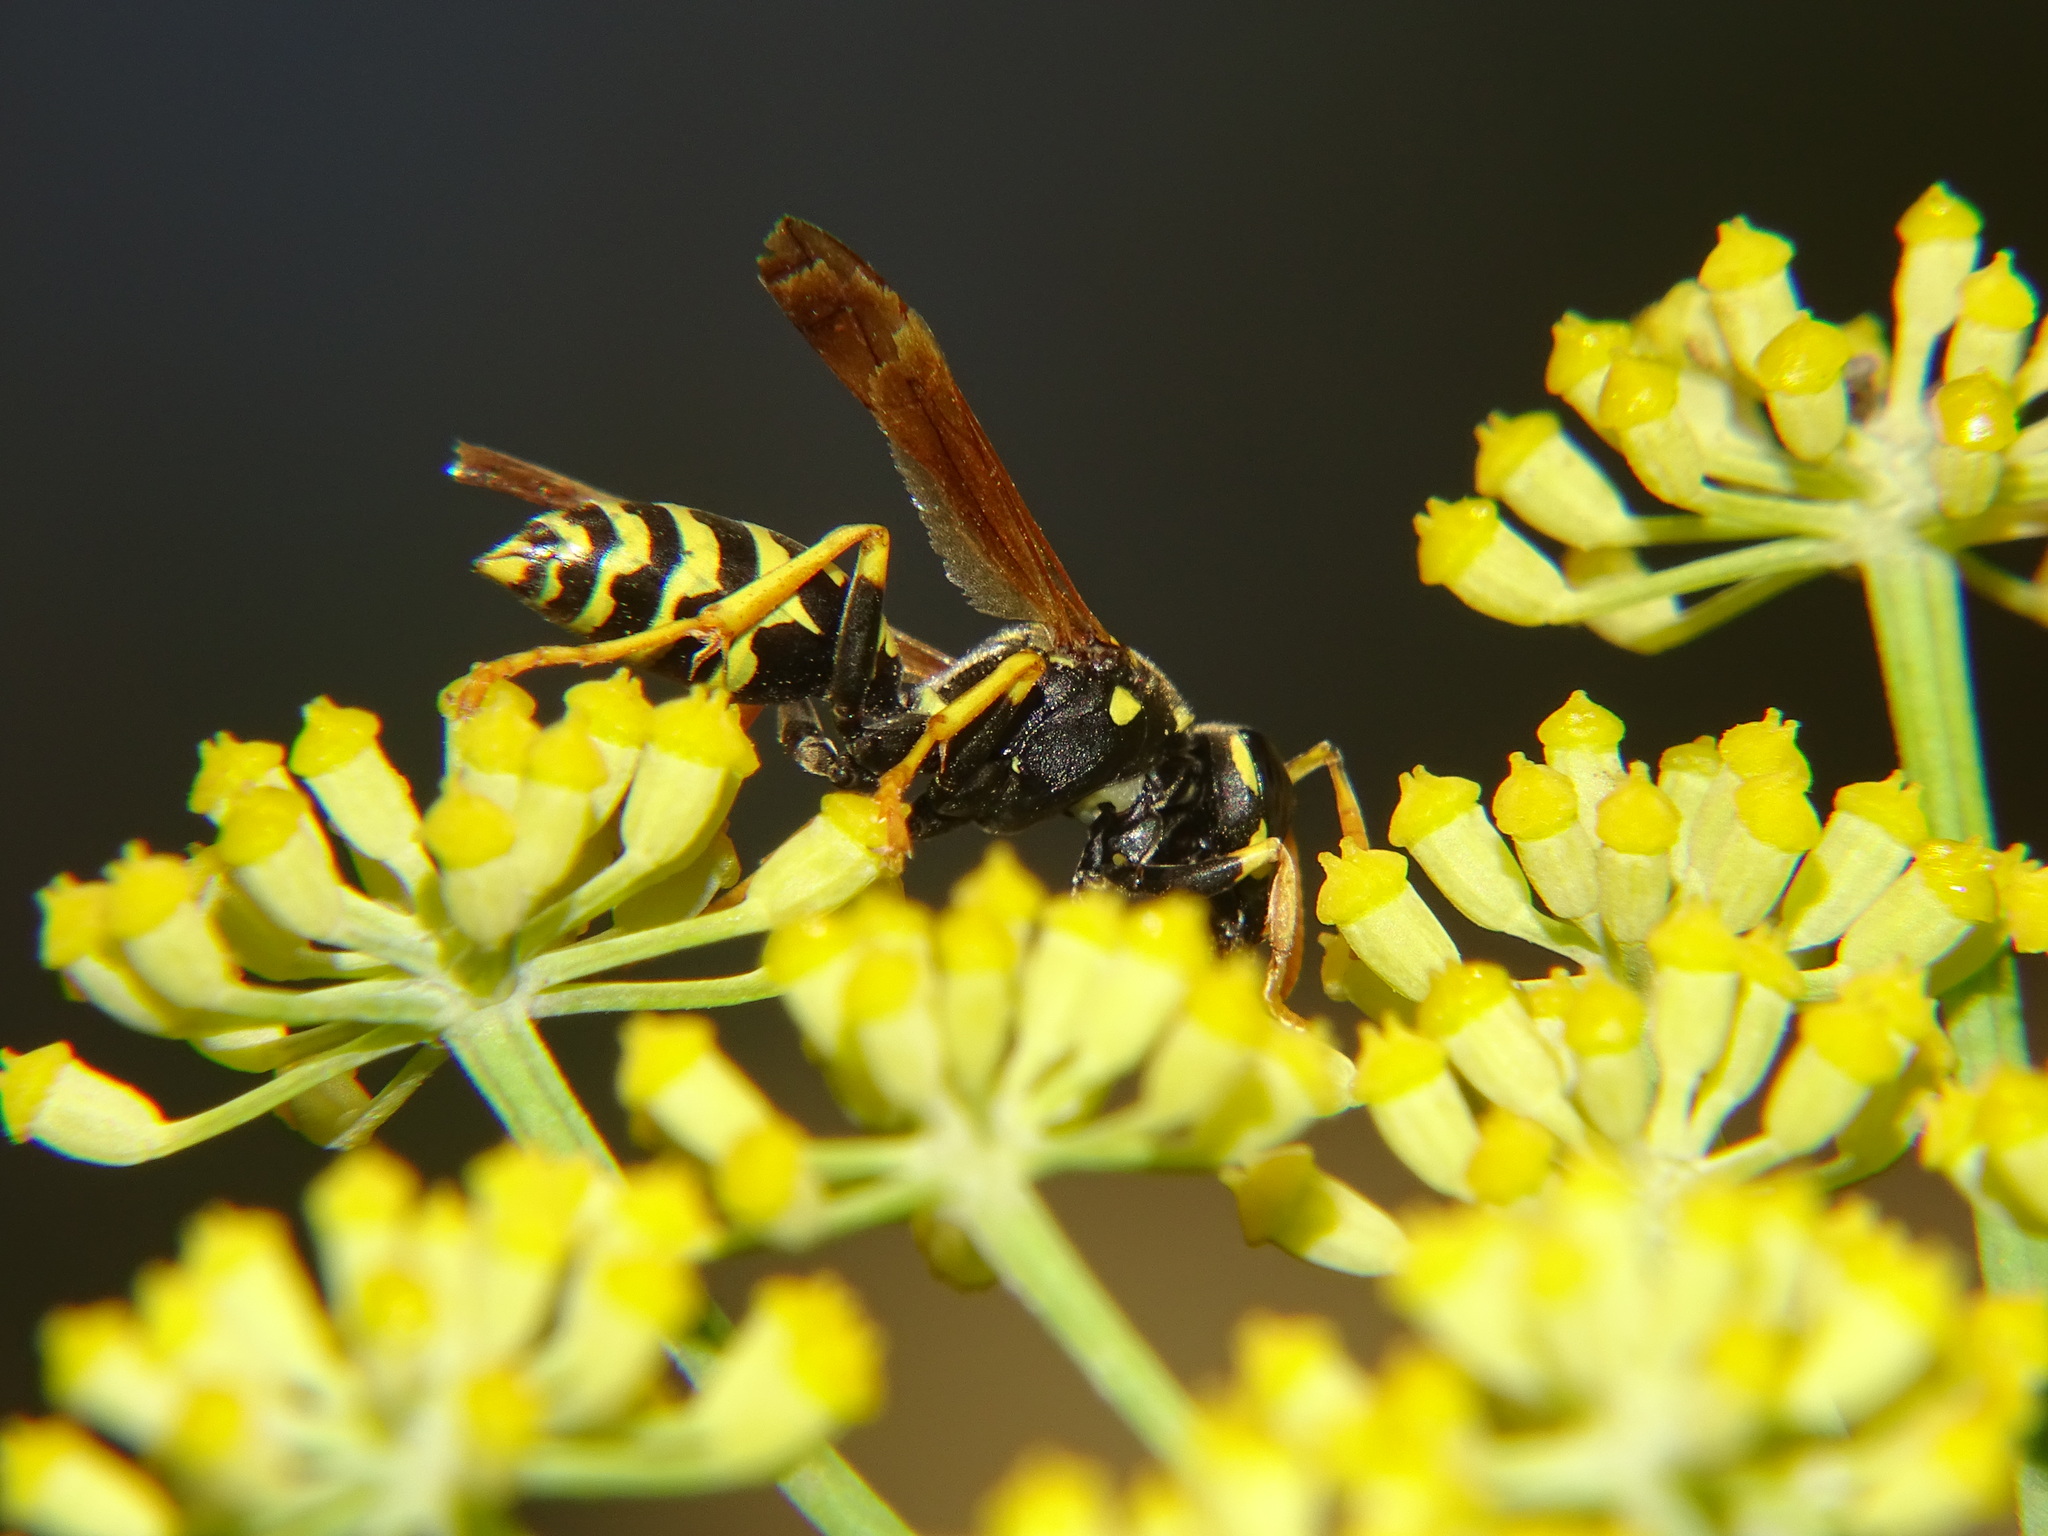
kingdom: Animalia
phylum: Arthropoda
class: Insecta
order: Hymenoptera
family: Eumenidae
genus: Polistes
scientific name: Polistes dominula
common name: Paper wasp
